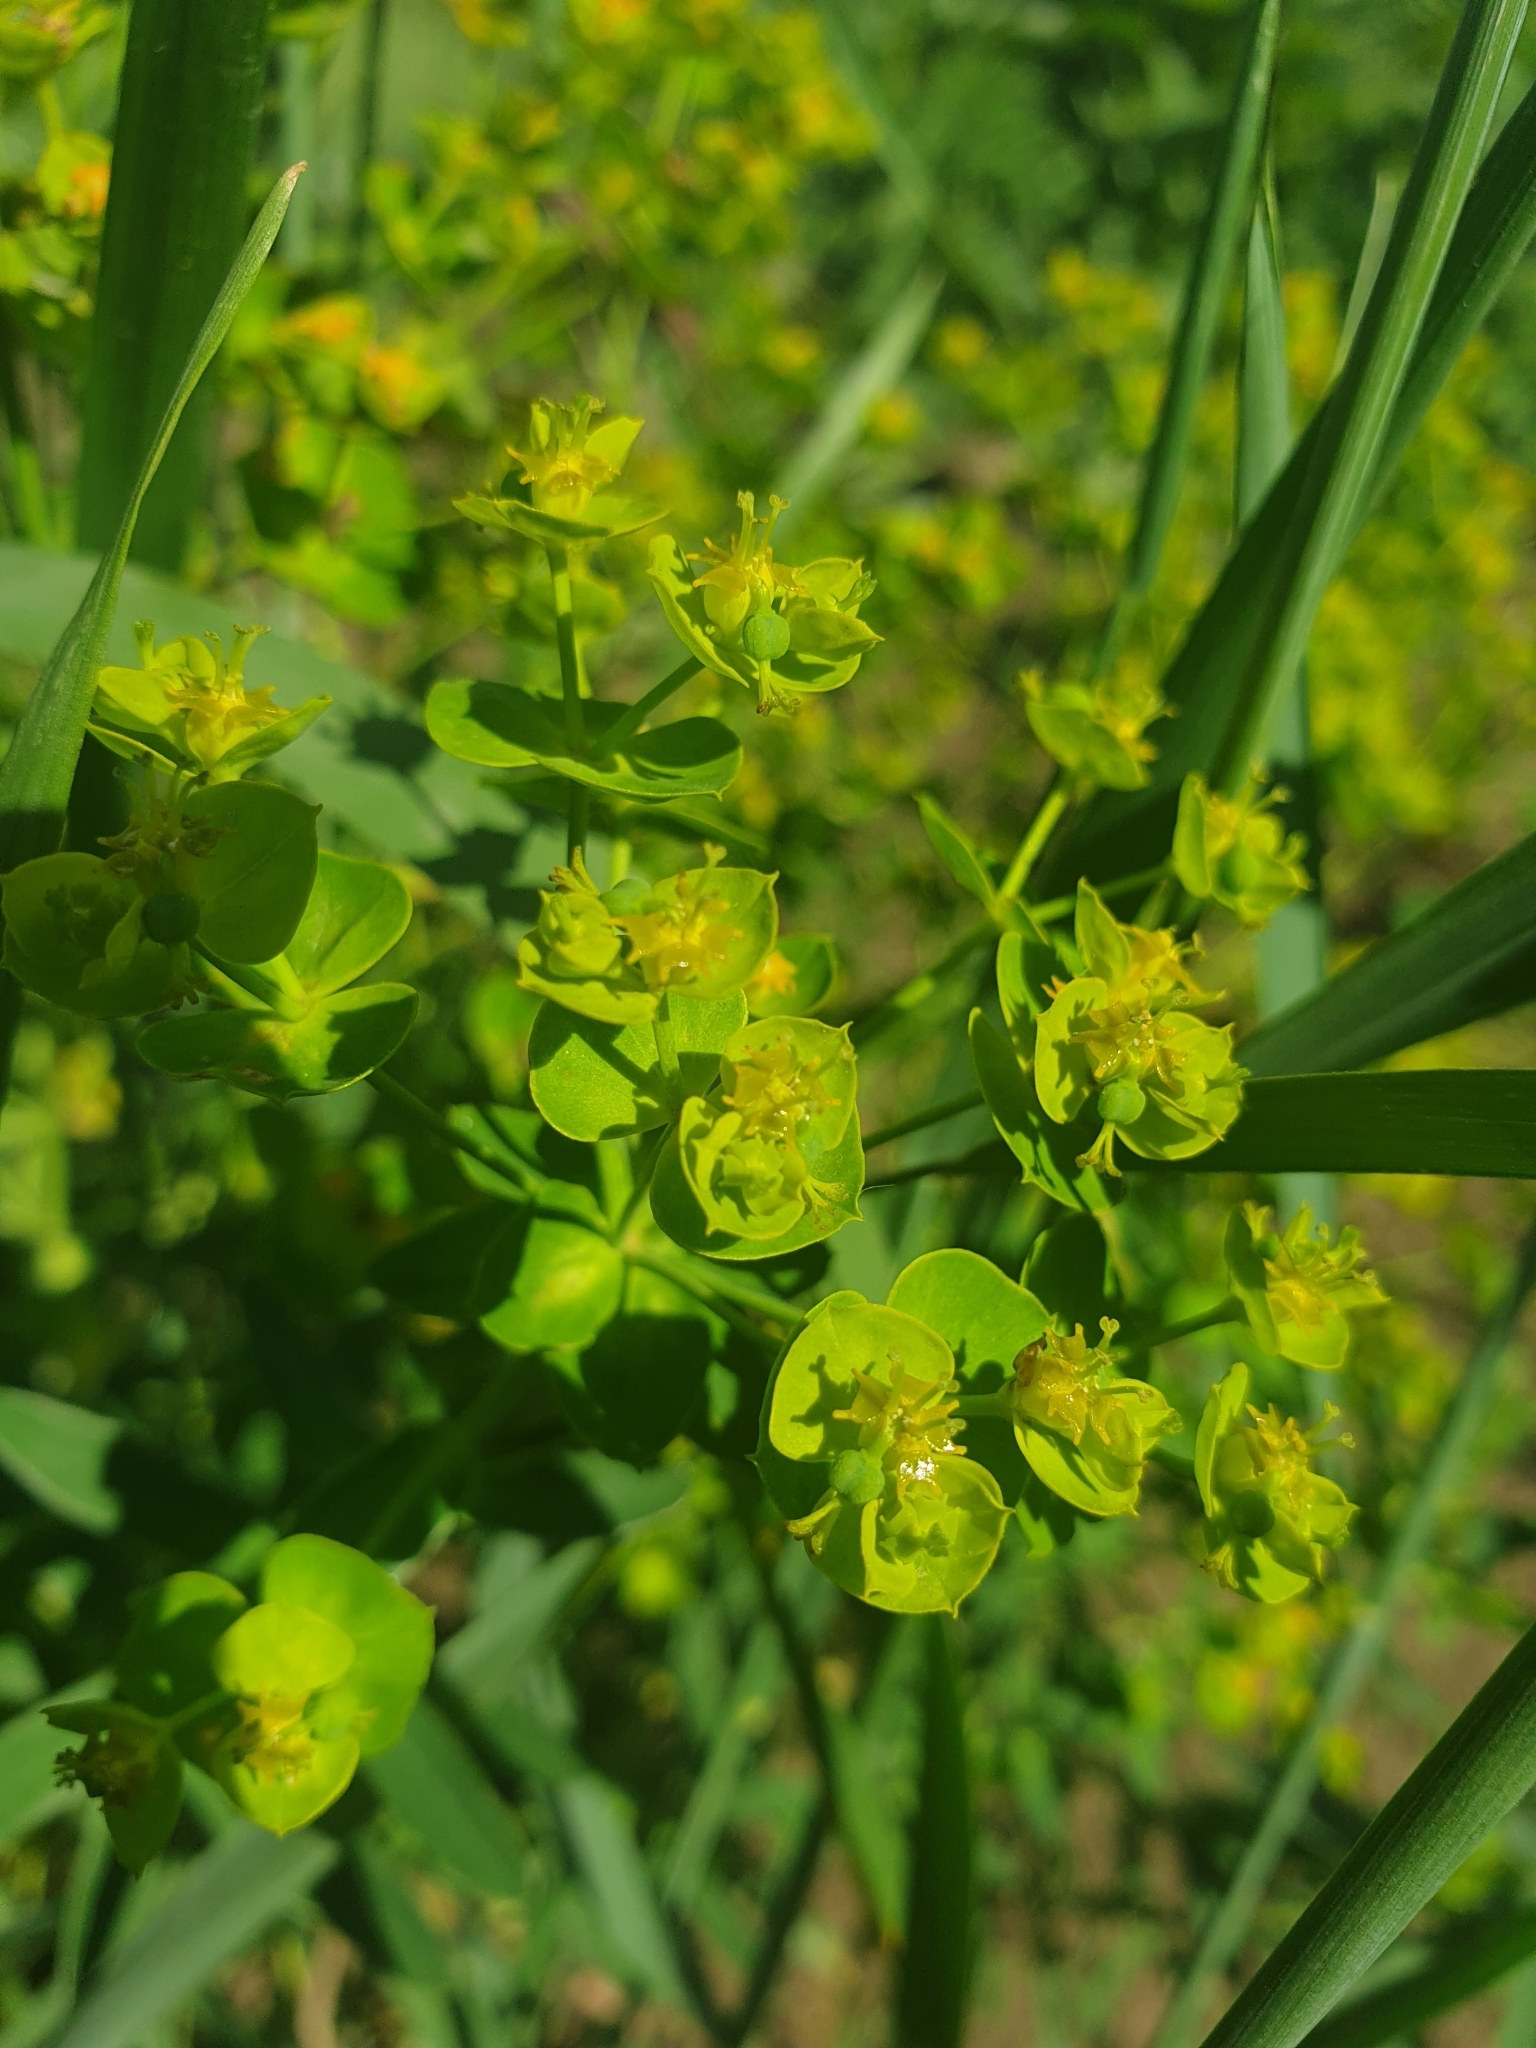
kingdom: Plantae
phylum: Tracheophyta
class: Magnoliopsida
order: Malpighiales
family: Euphorbiaceae
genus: Euphorbia
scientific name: Euphorbia virgata
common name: Leafy spurge
